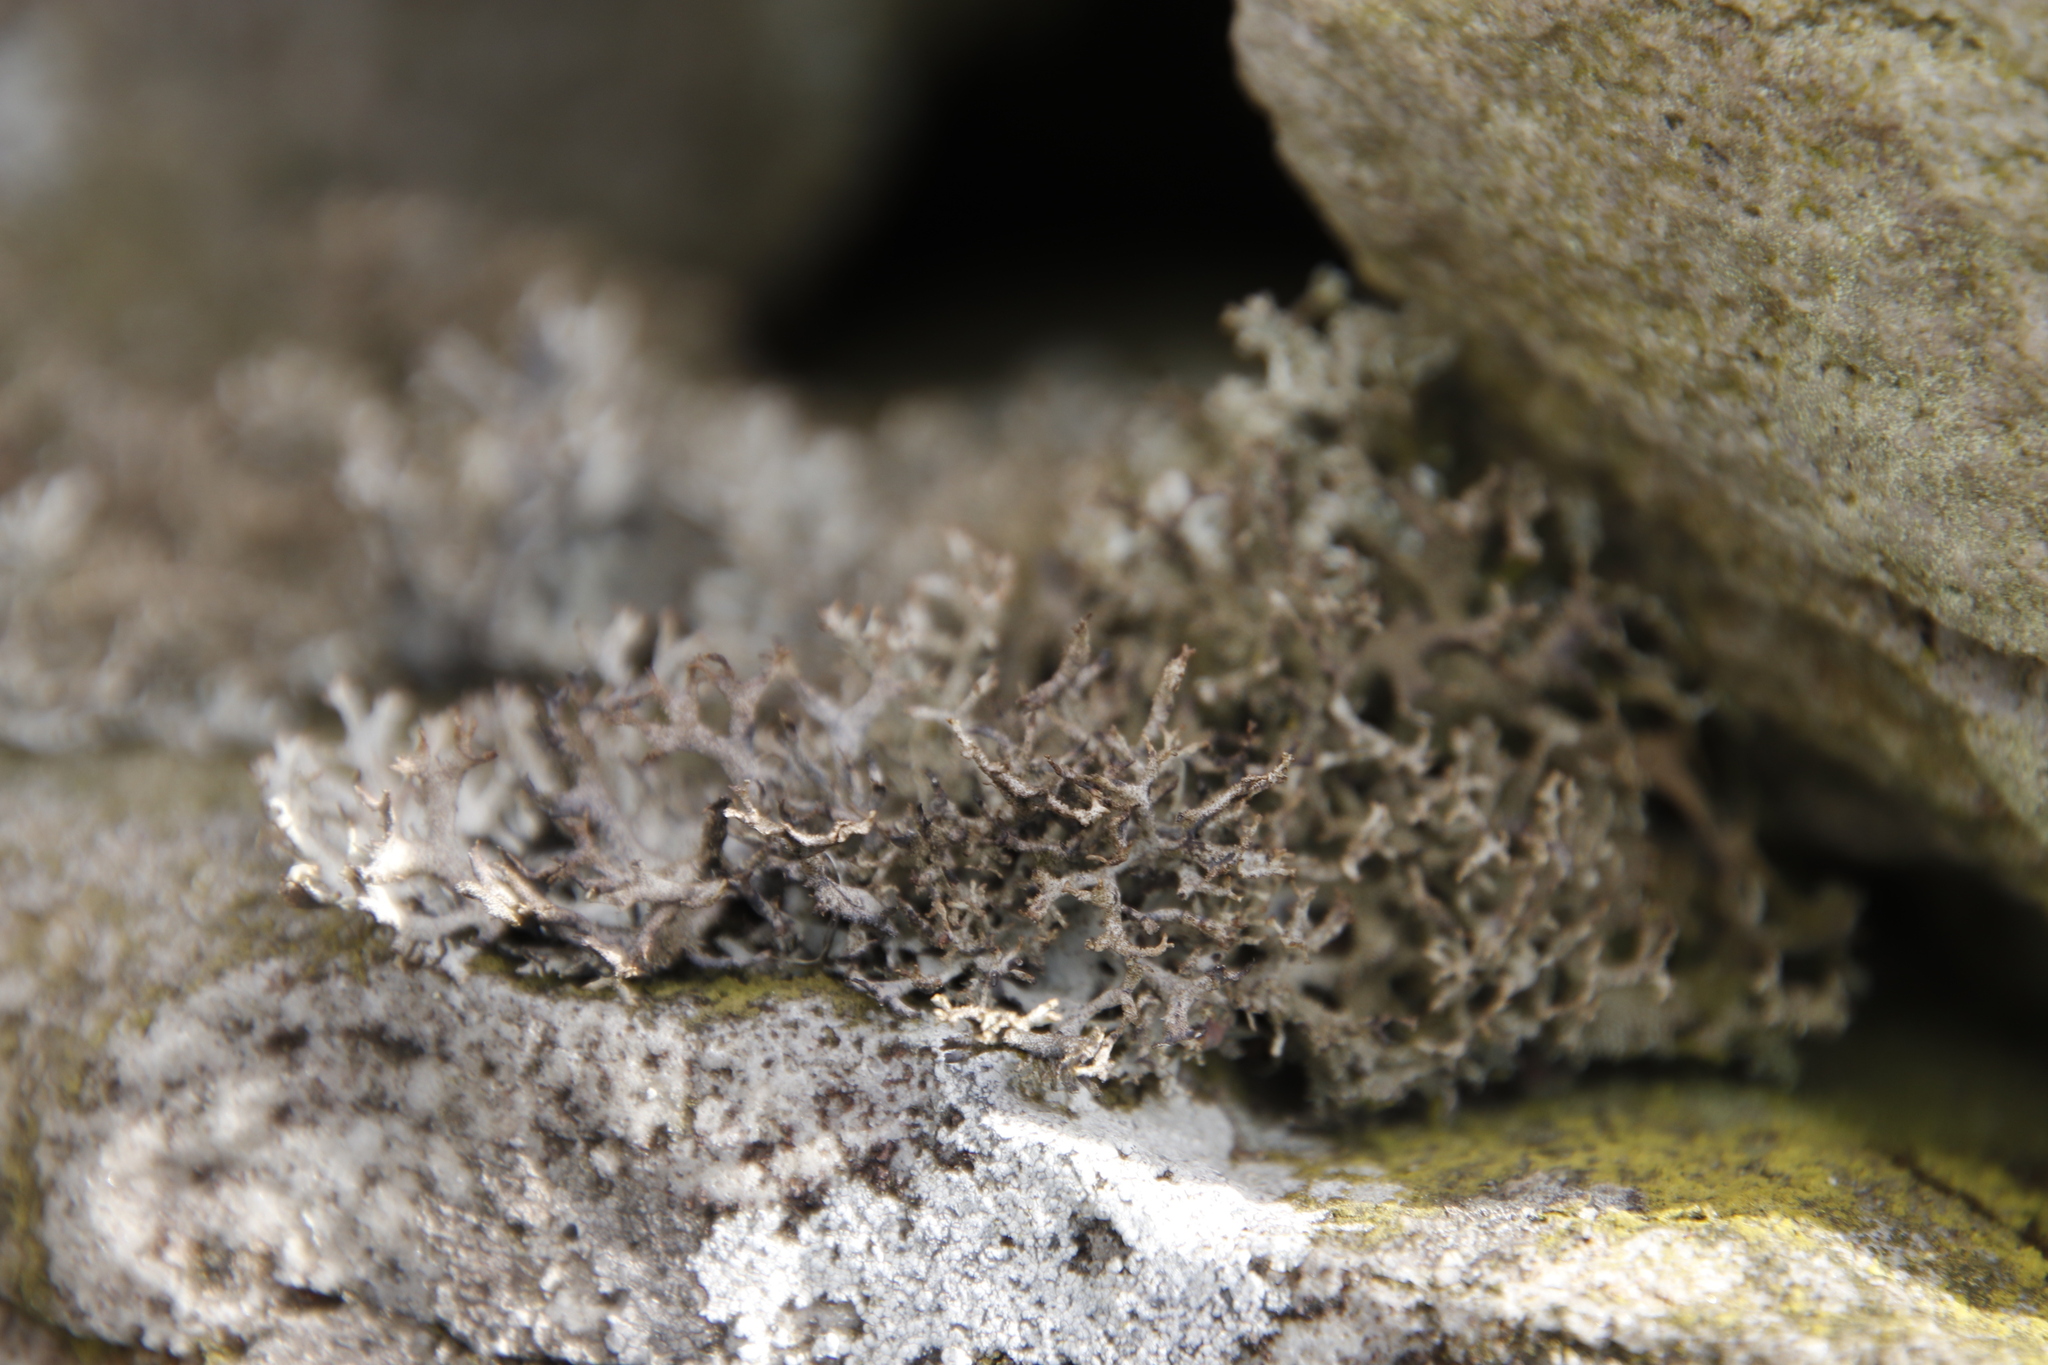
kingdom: Fungi
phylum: Ascomycota
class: Lecanoromycetes
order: Lecanorales
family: Parmeliaceae
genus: Pseudevernia
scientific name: Pseudevernia furfuracea
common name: Tree moss
